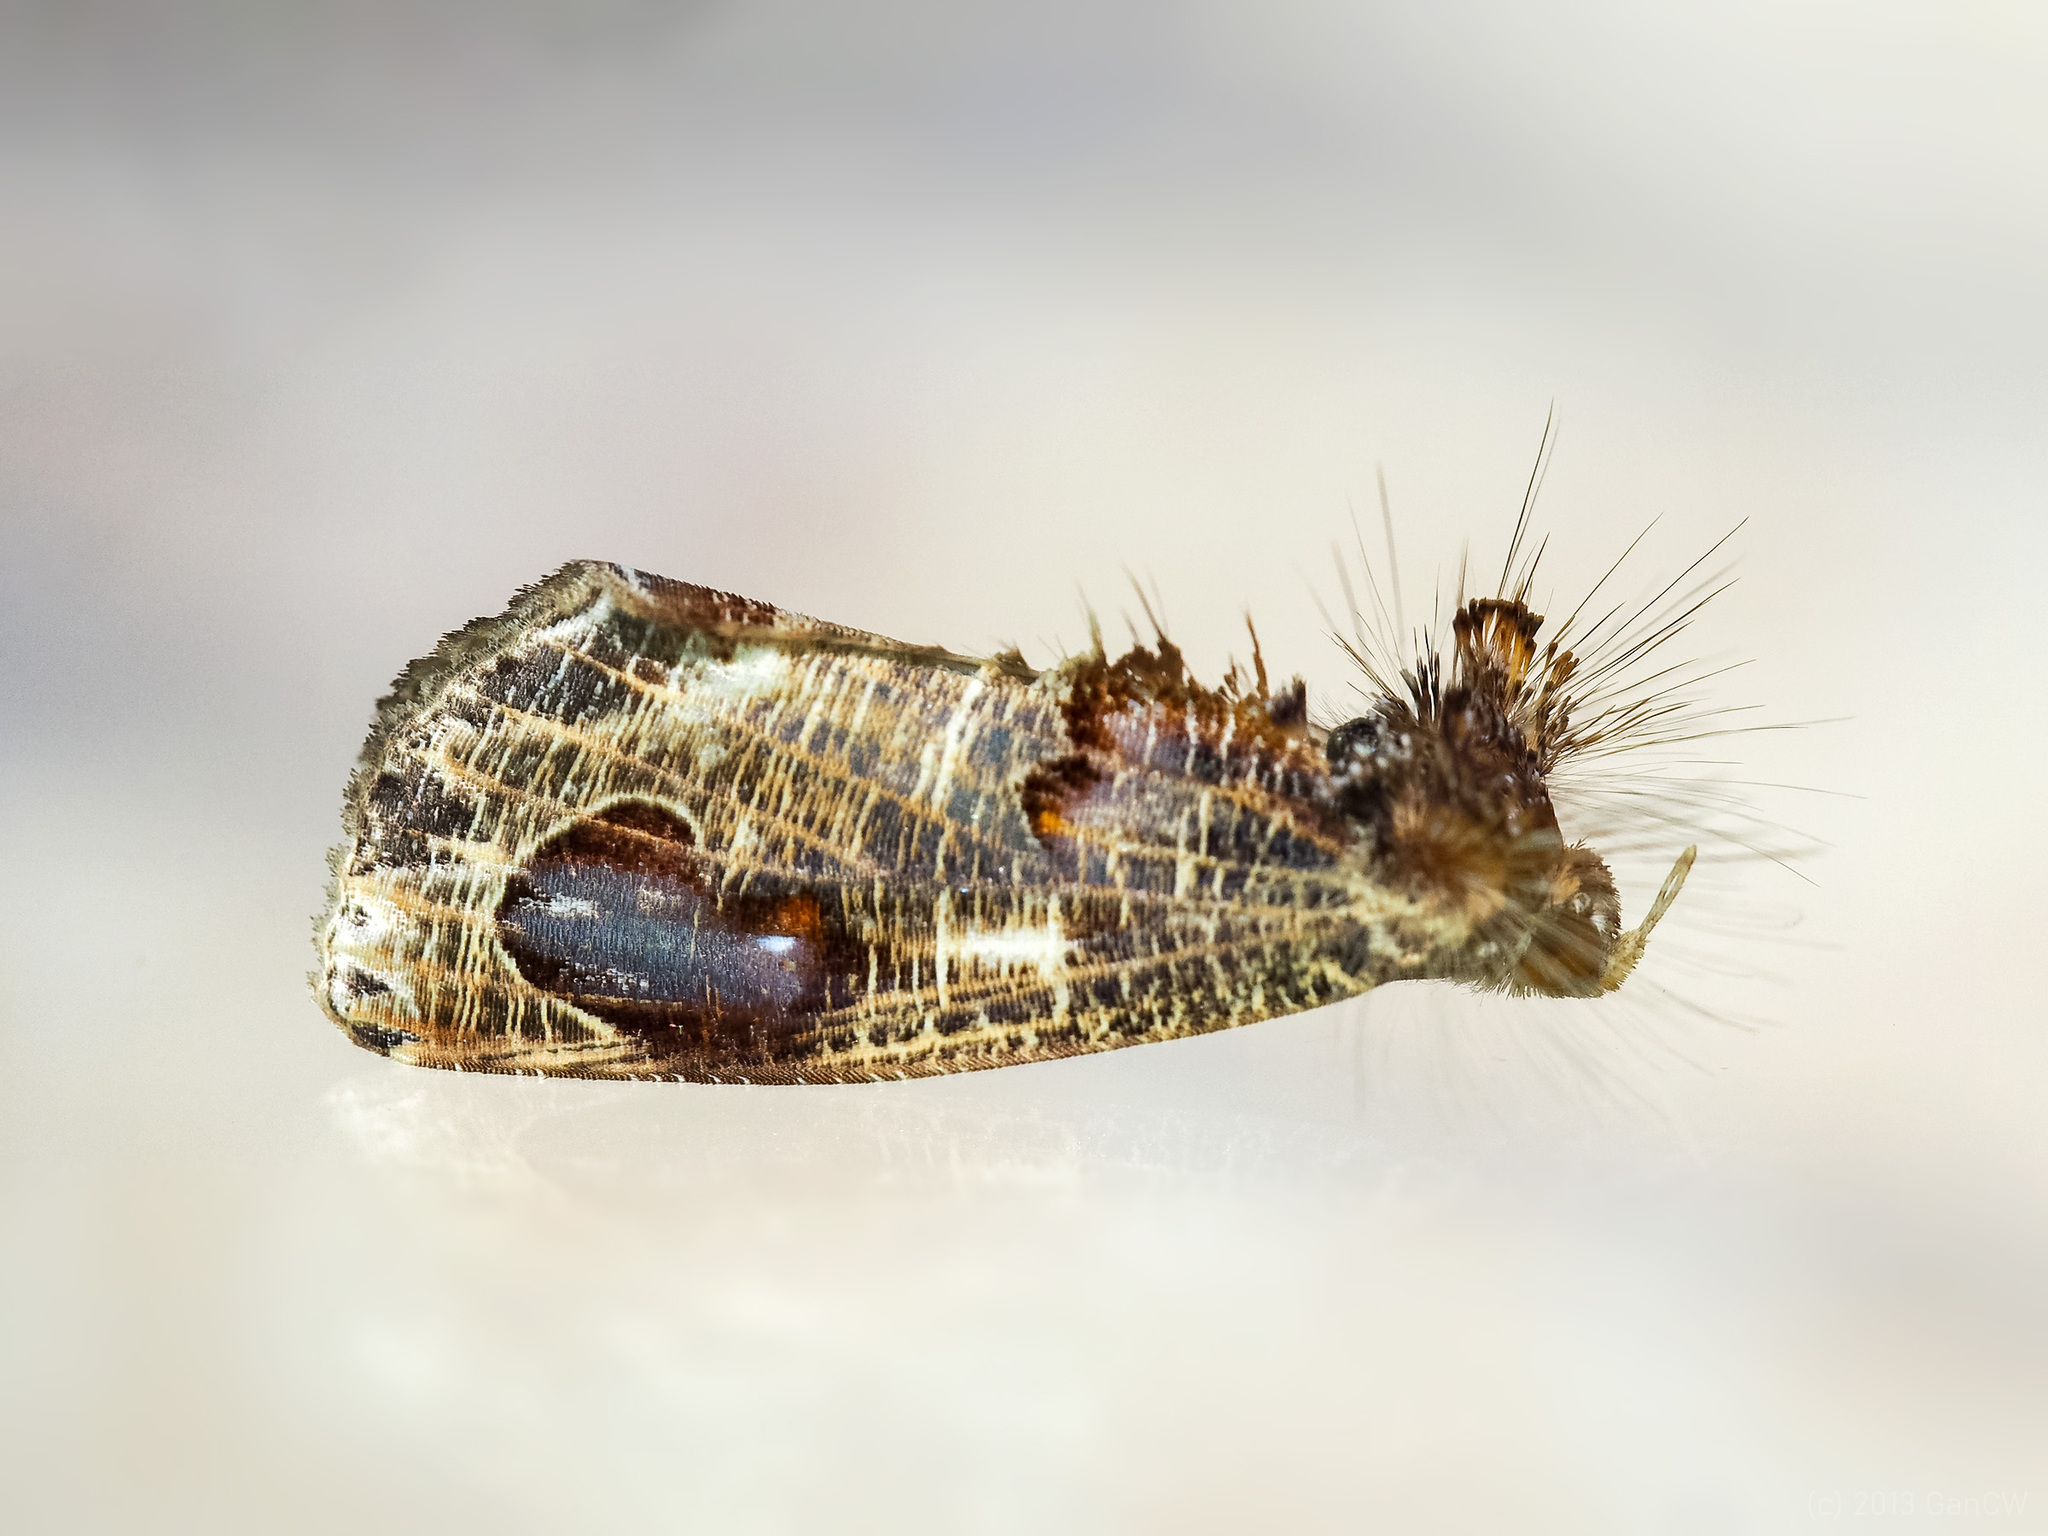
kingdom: Animalia
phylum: Arthropoda
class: Insecta
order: Lepidoptera
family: Erebidae
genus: Pilipectus
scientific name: Pilipectus cyclopis
